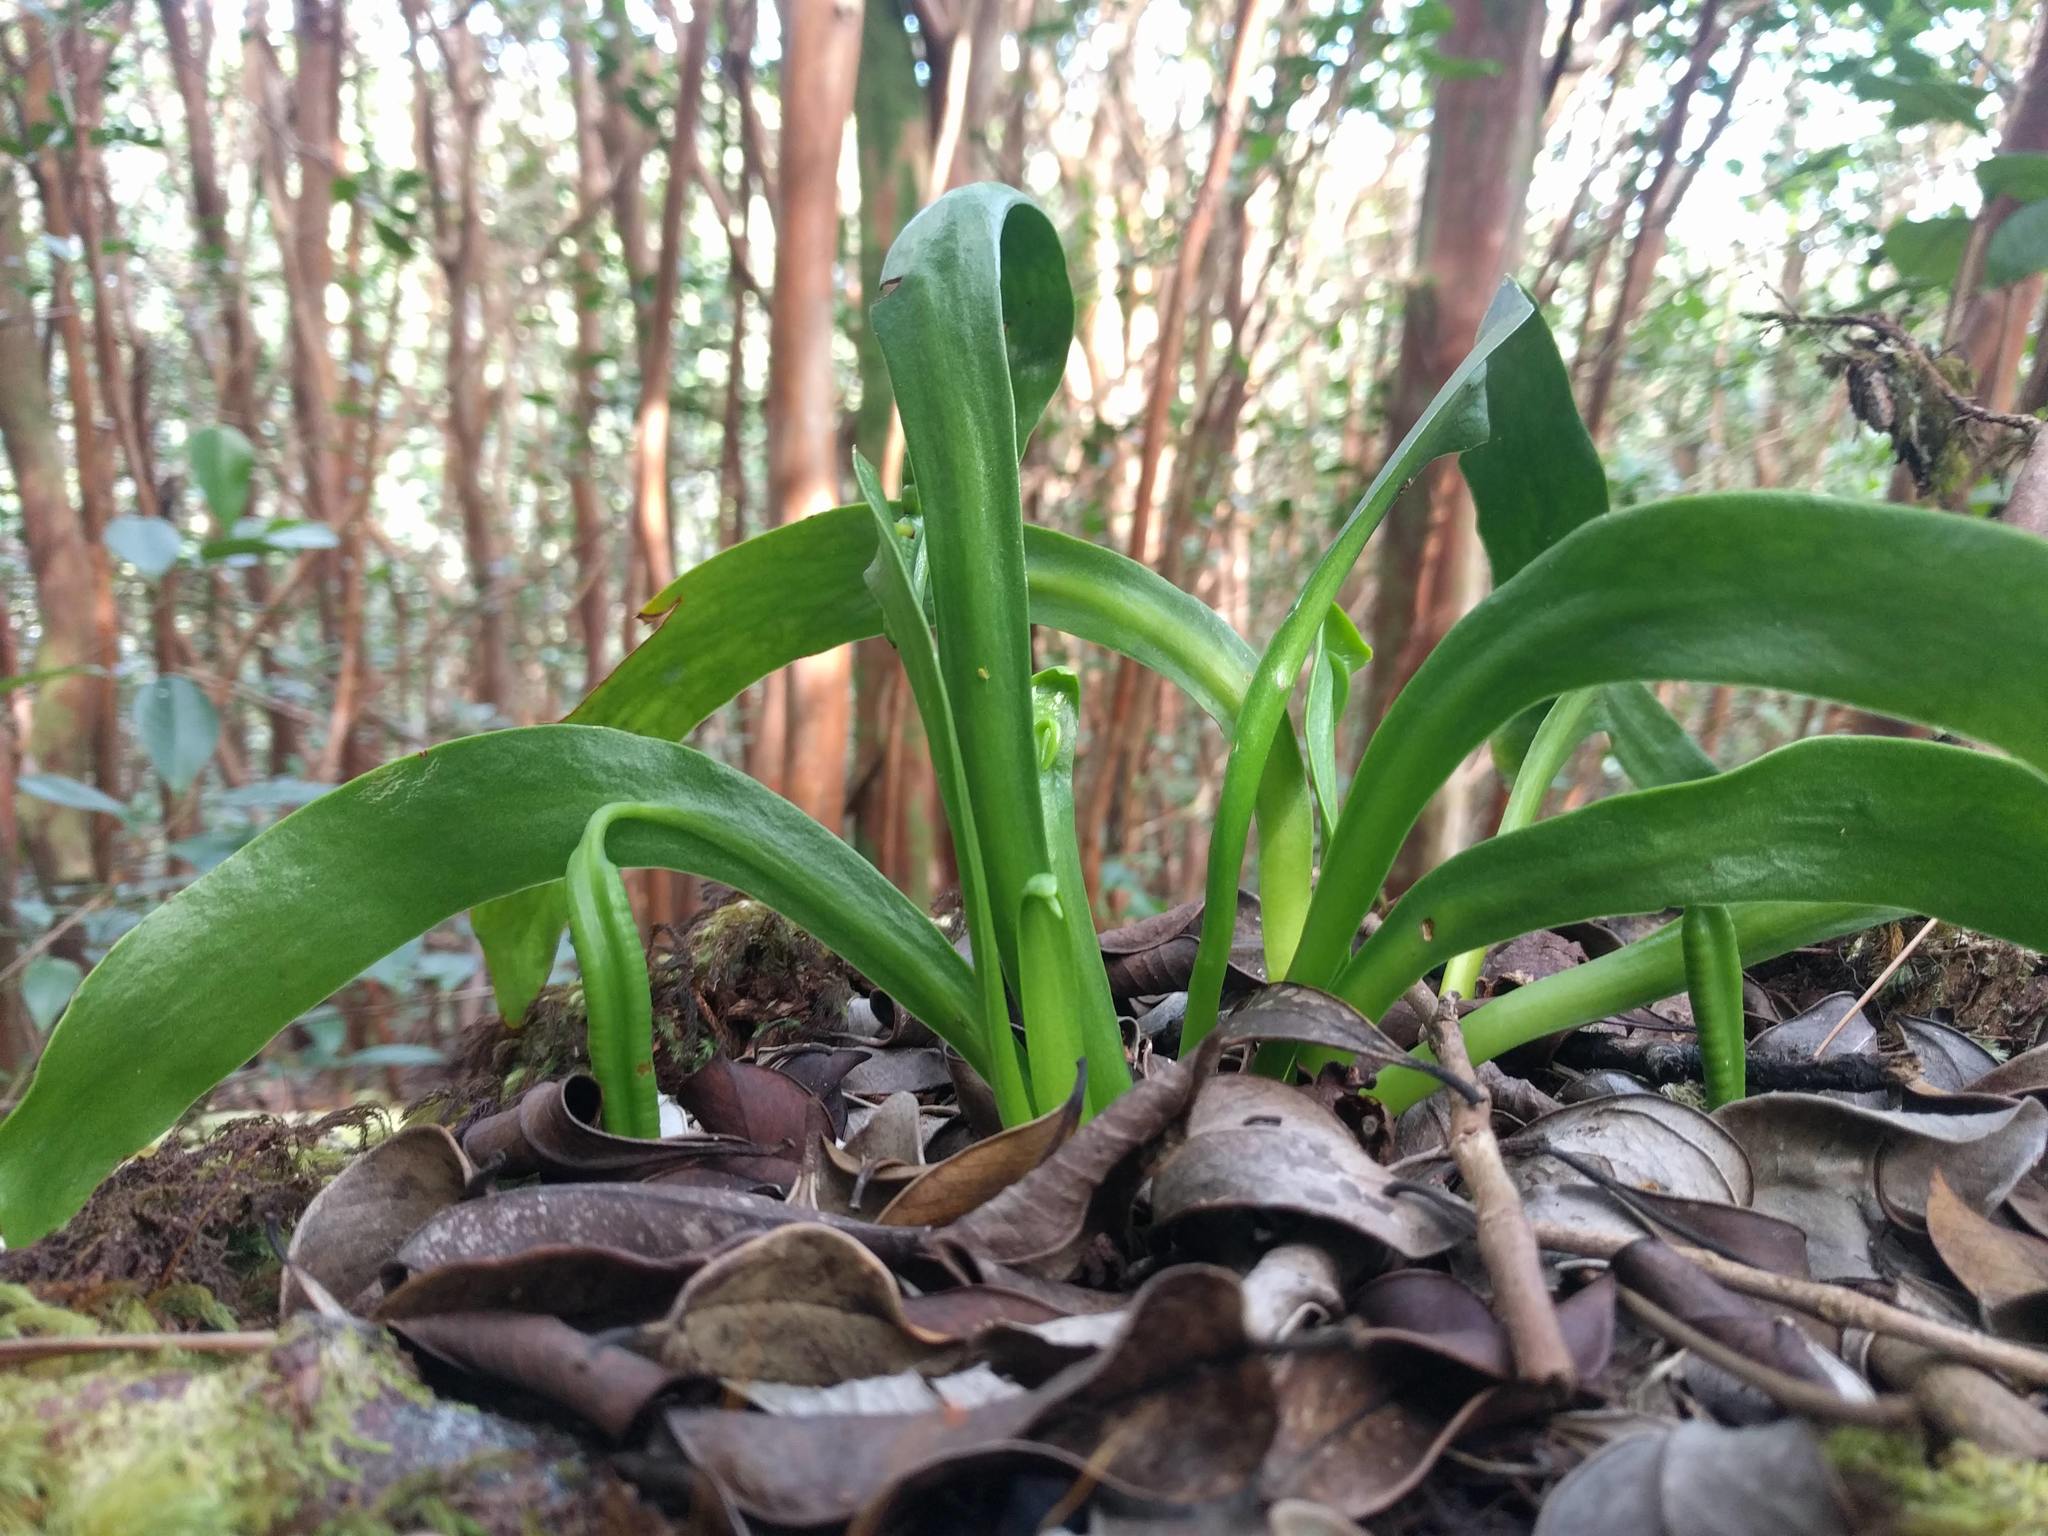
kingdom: Plantae
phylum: Tracheophyta
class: Polypodiopsida
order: Ophioglossales
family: Ophioglossaceae
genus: Ophioderma
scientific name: Ophioderma falcatum
